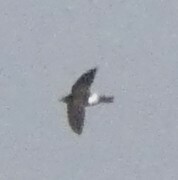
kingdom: Animalia
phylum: Chordata
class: Aves
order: Apodiformes
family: Apodidae
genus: Apus
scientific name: Apus affinis
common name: Little swift
